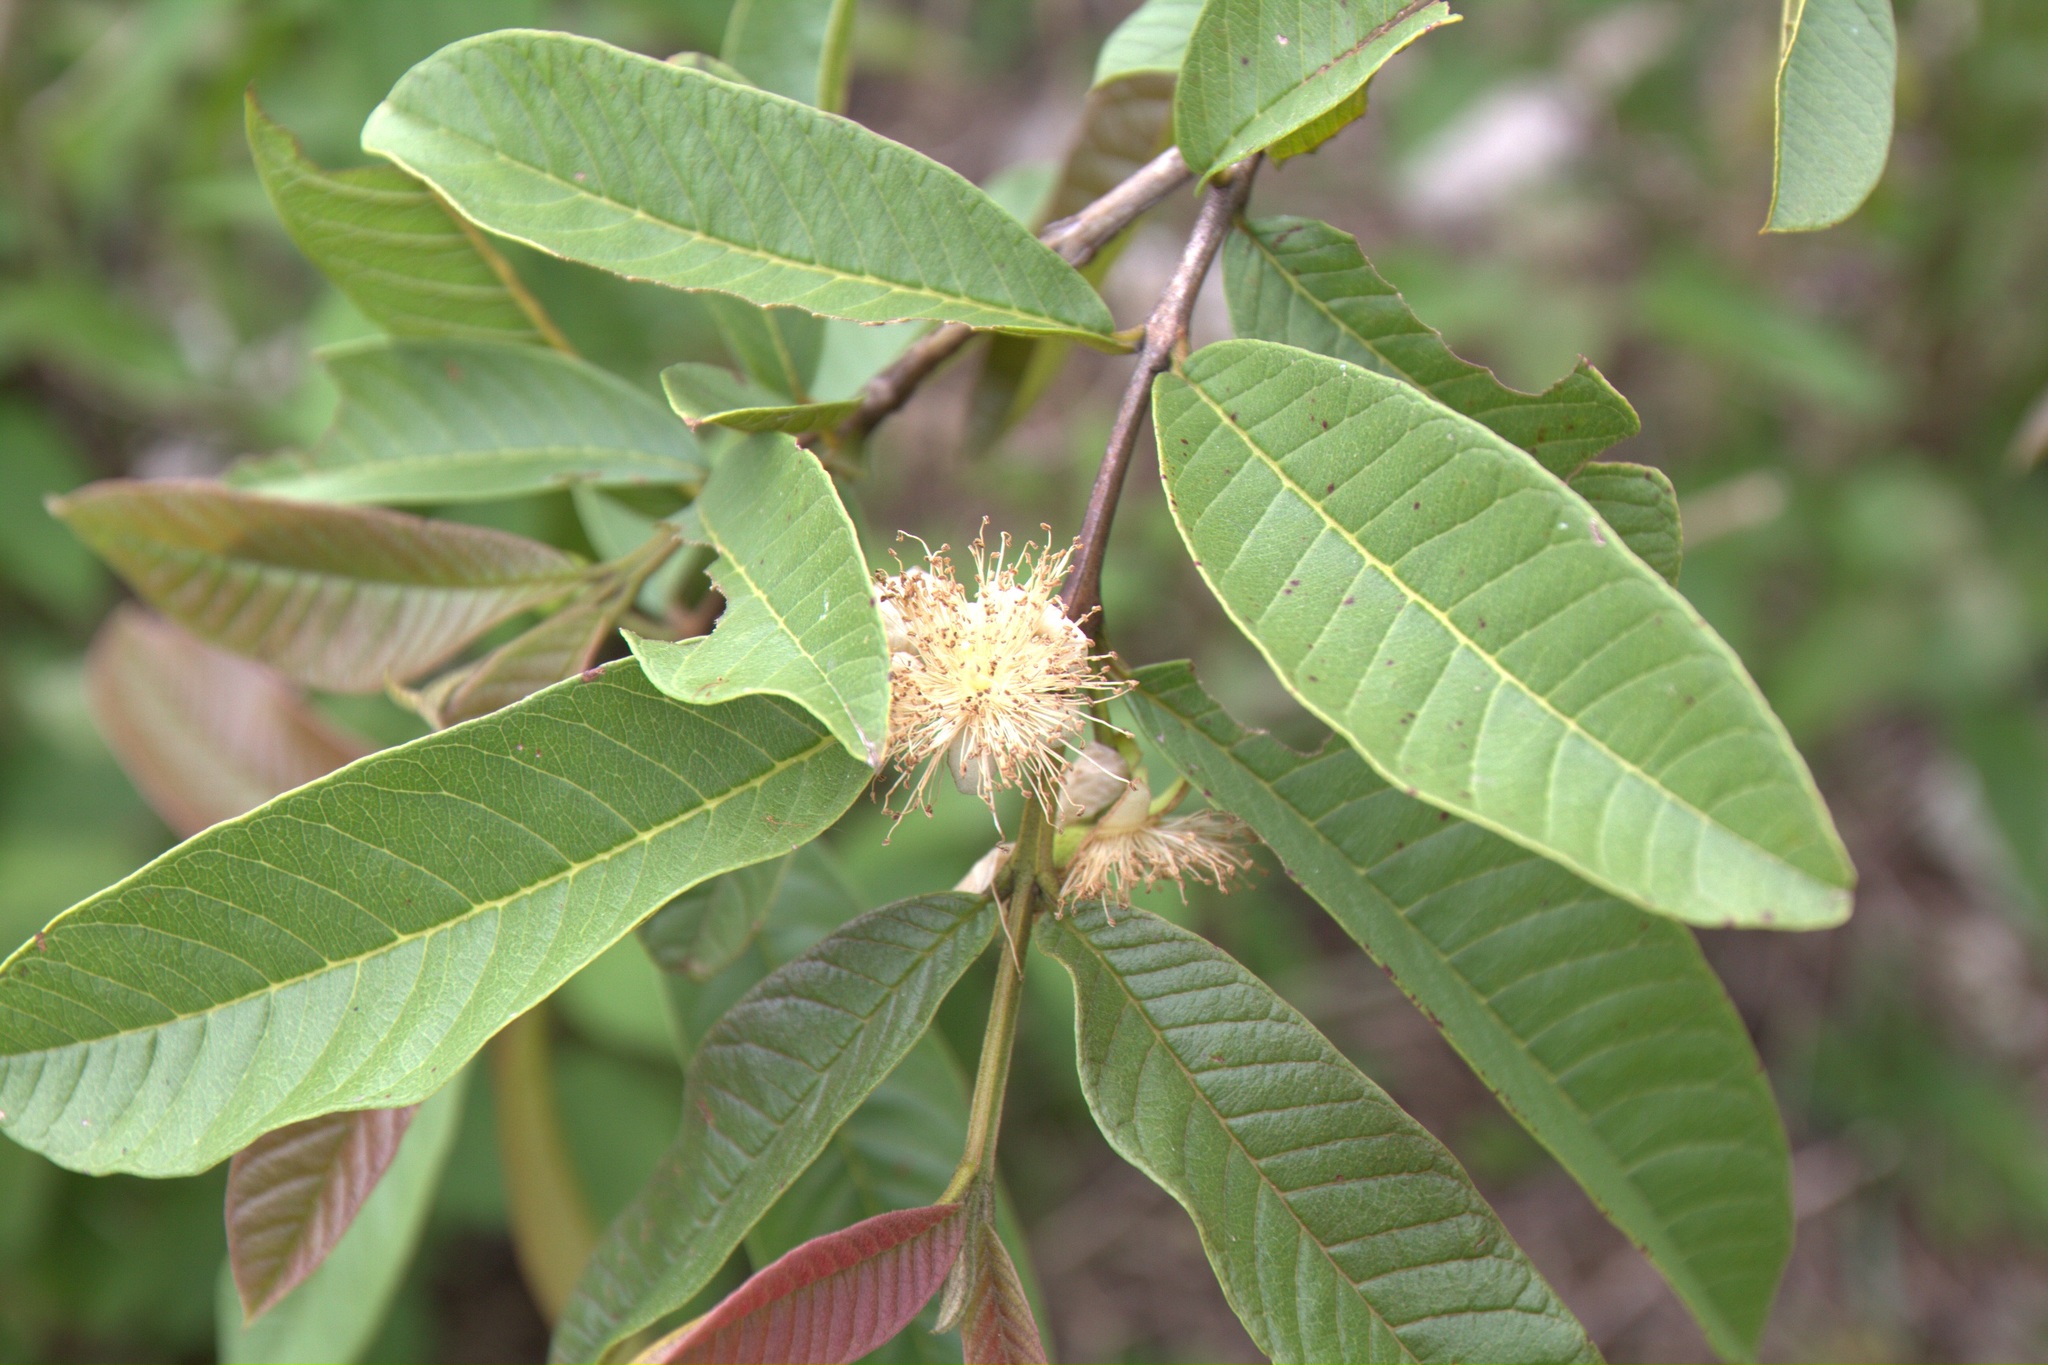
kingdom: Plantae
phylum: Tracheophyta
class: Magnoliopsida
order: Myrtales
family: Myrtaceae
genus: Psidium
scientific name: Psidium guajava
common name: Guava
